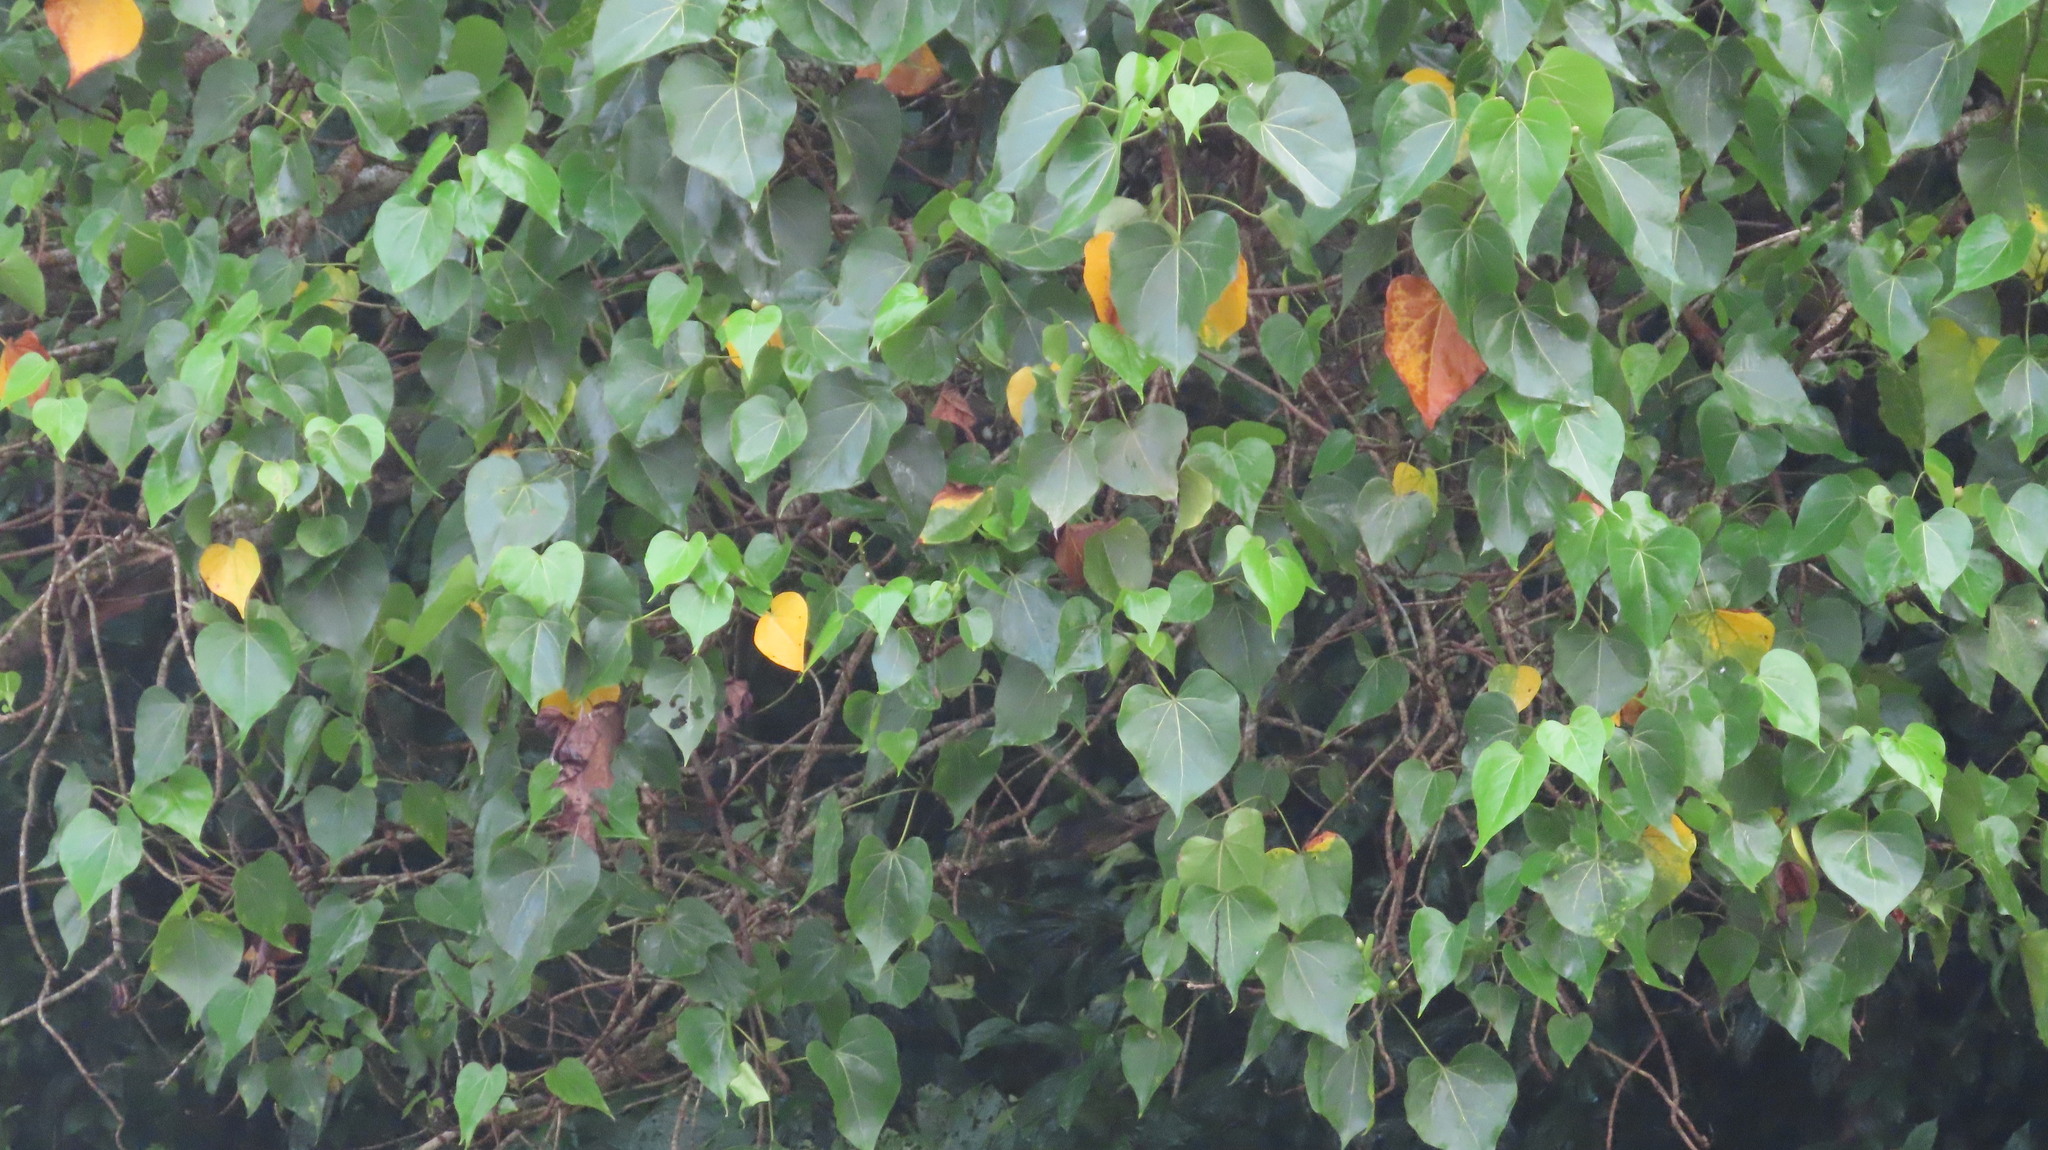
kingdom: Plantae
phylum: Tracheophyta
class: Magnoliopsida
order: Malvales
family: Malvaceae
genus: Thespesia
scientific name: Thespesia populnea
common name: Seaside mahoe
